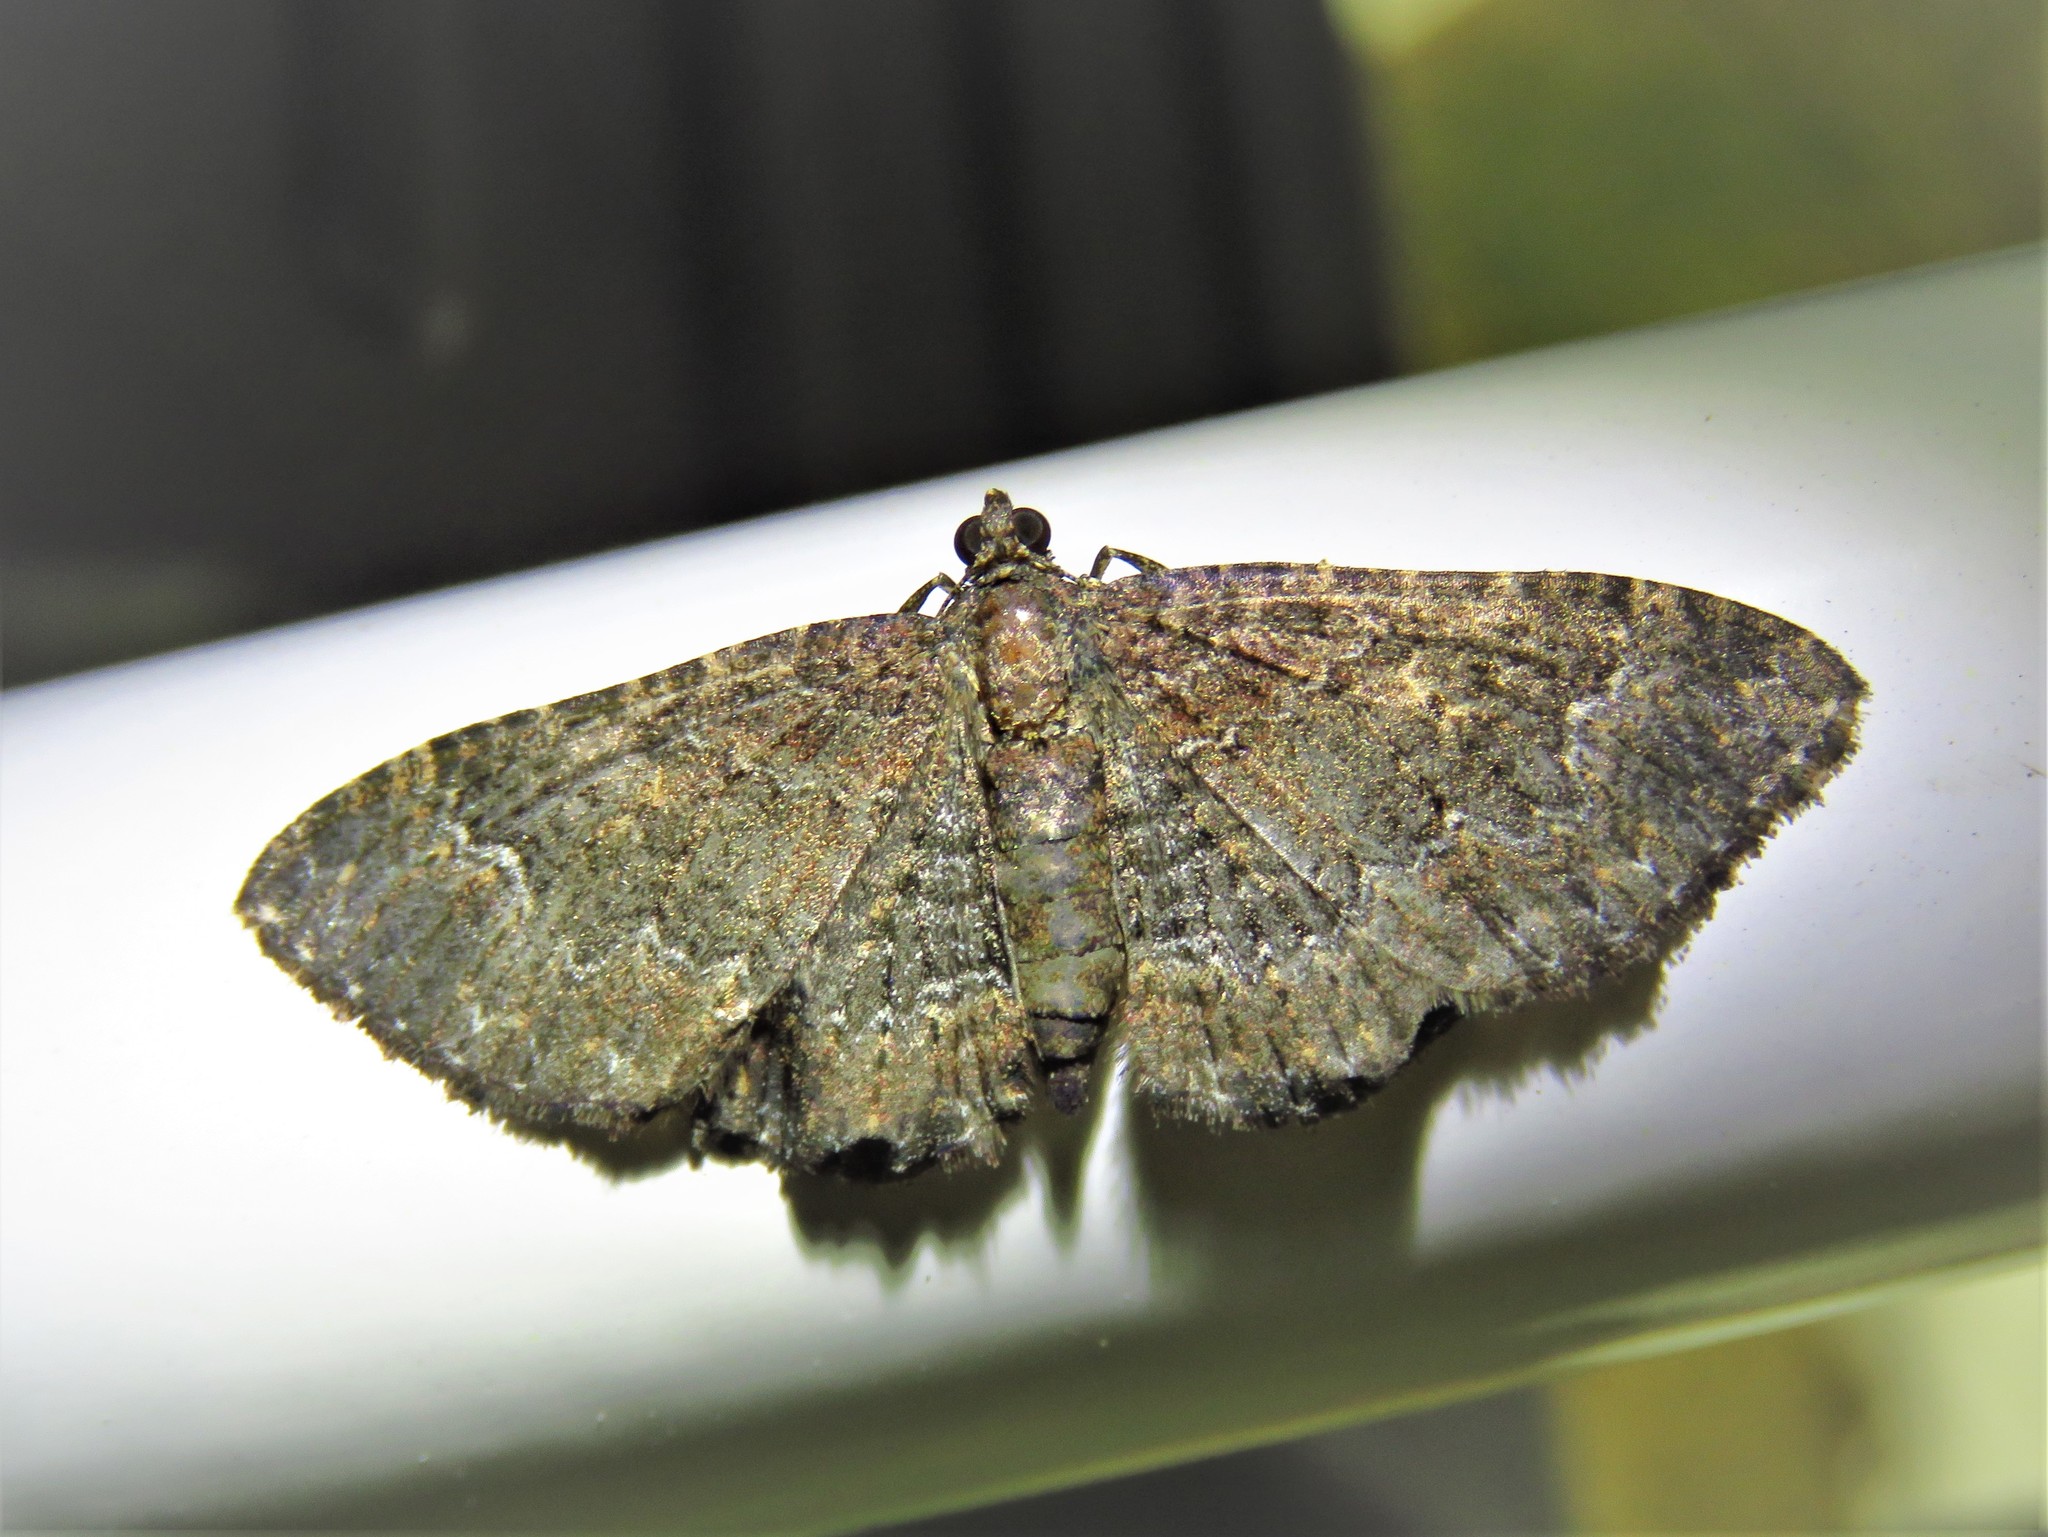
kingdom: Animalia
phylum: Arthropoda
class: Insecta
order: Lepidoptera
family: Geometridae
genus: Disclisioprocta
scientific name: Disclisioprocta stellata
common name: Somber carpet
